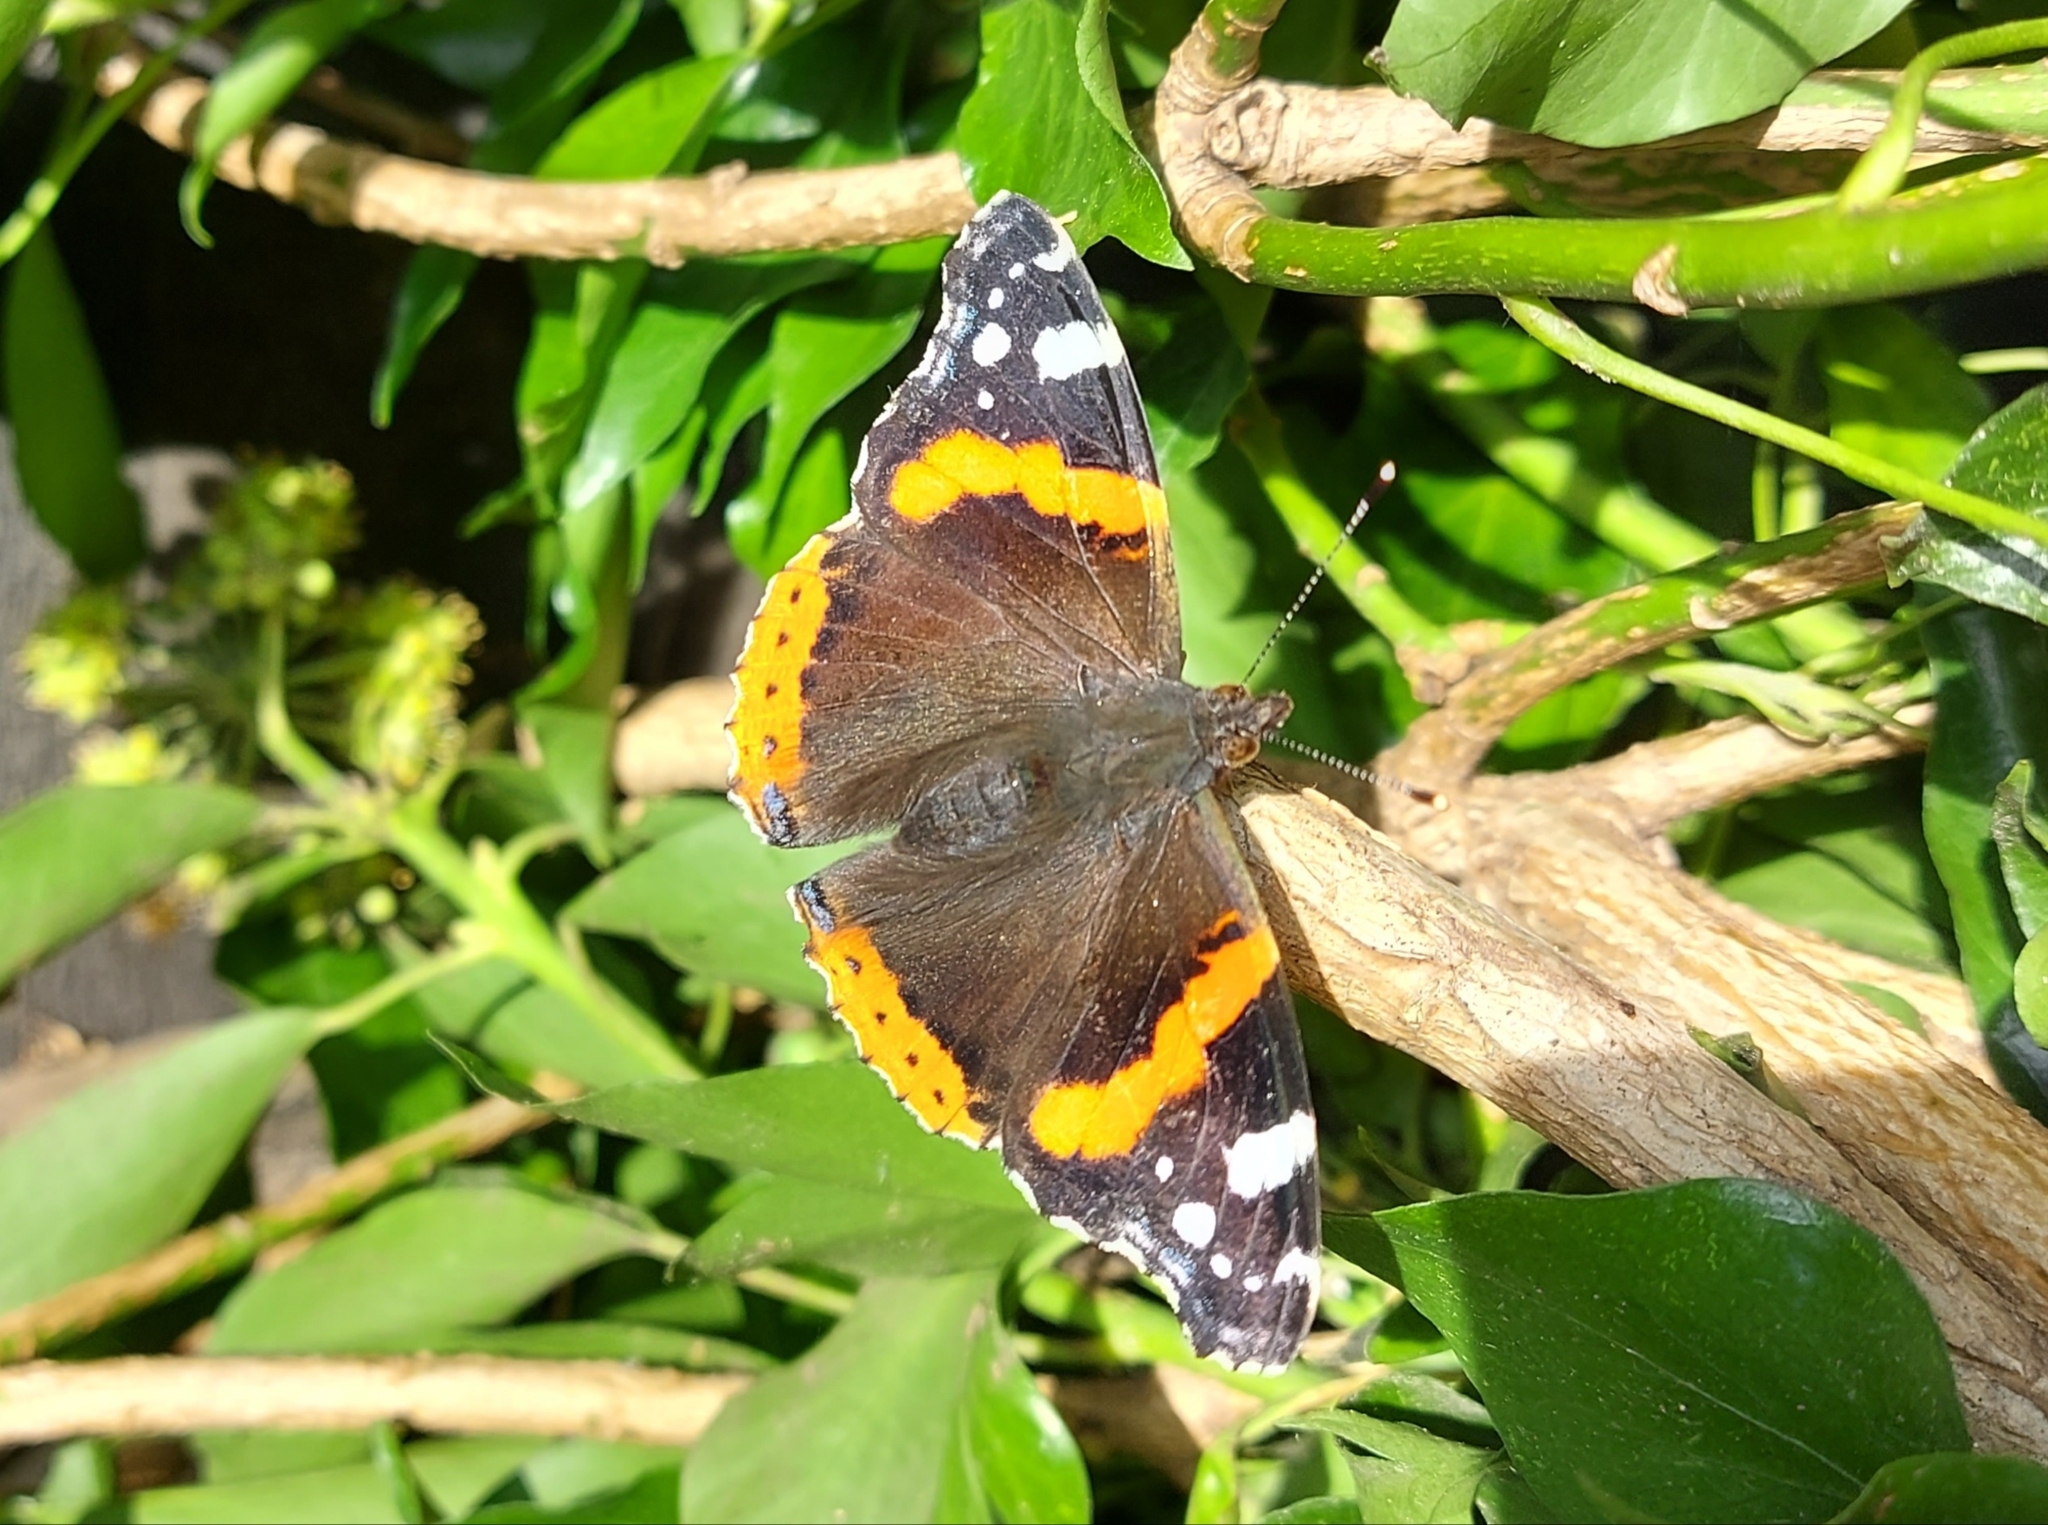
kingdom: Animalia
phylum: Arthropoda
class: Insecta
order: Lepidoptera
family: Nymphalidae
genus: Vanessa
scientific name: Vanessa atalanta
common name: Red admiral
